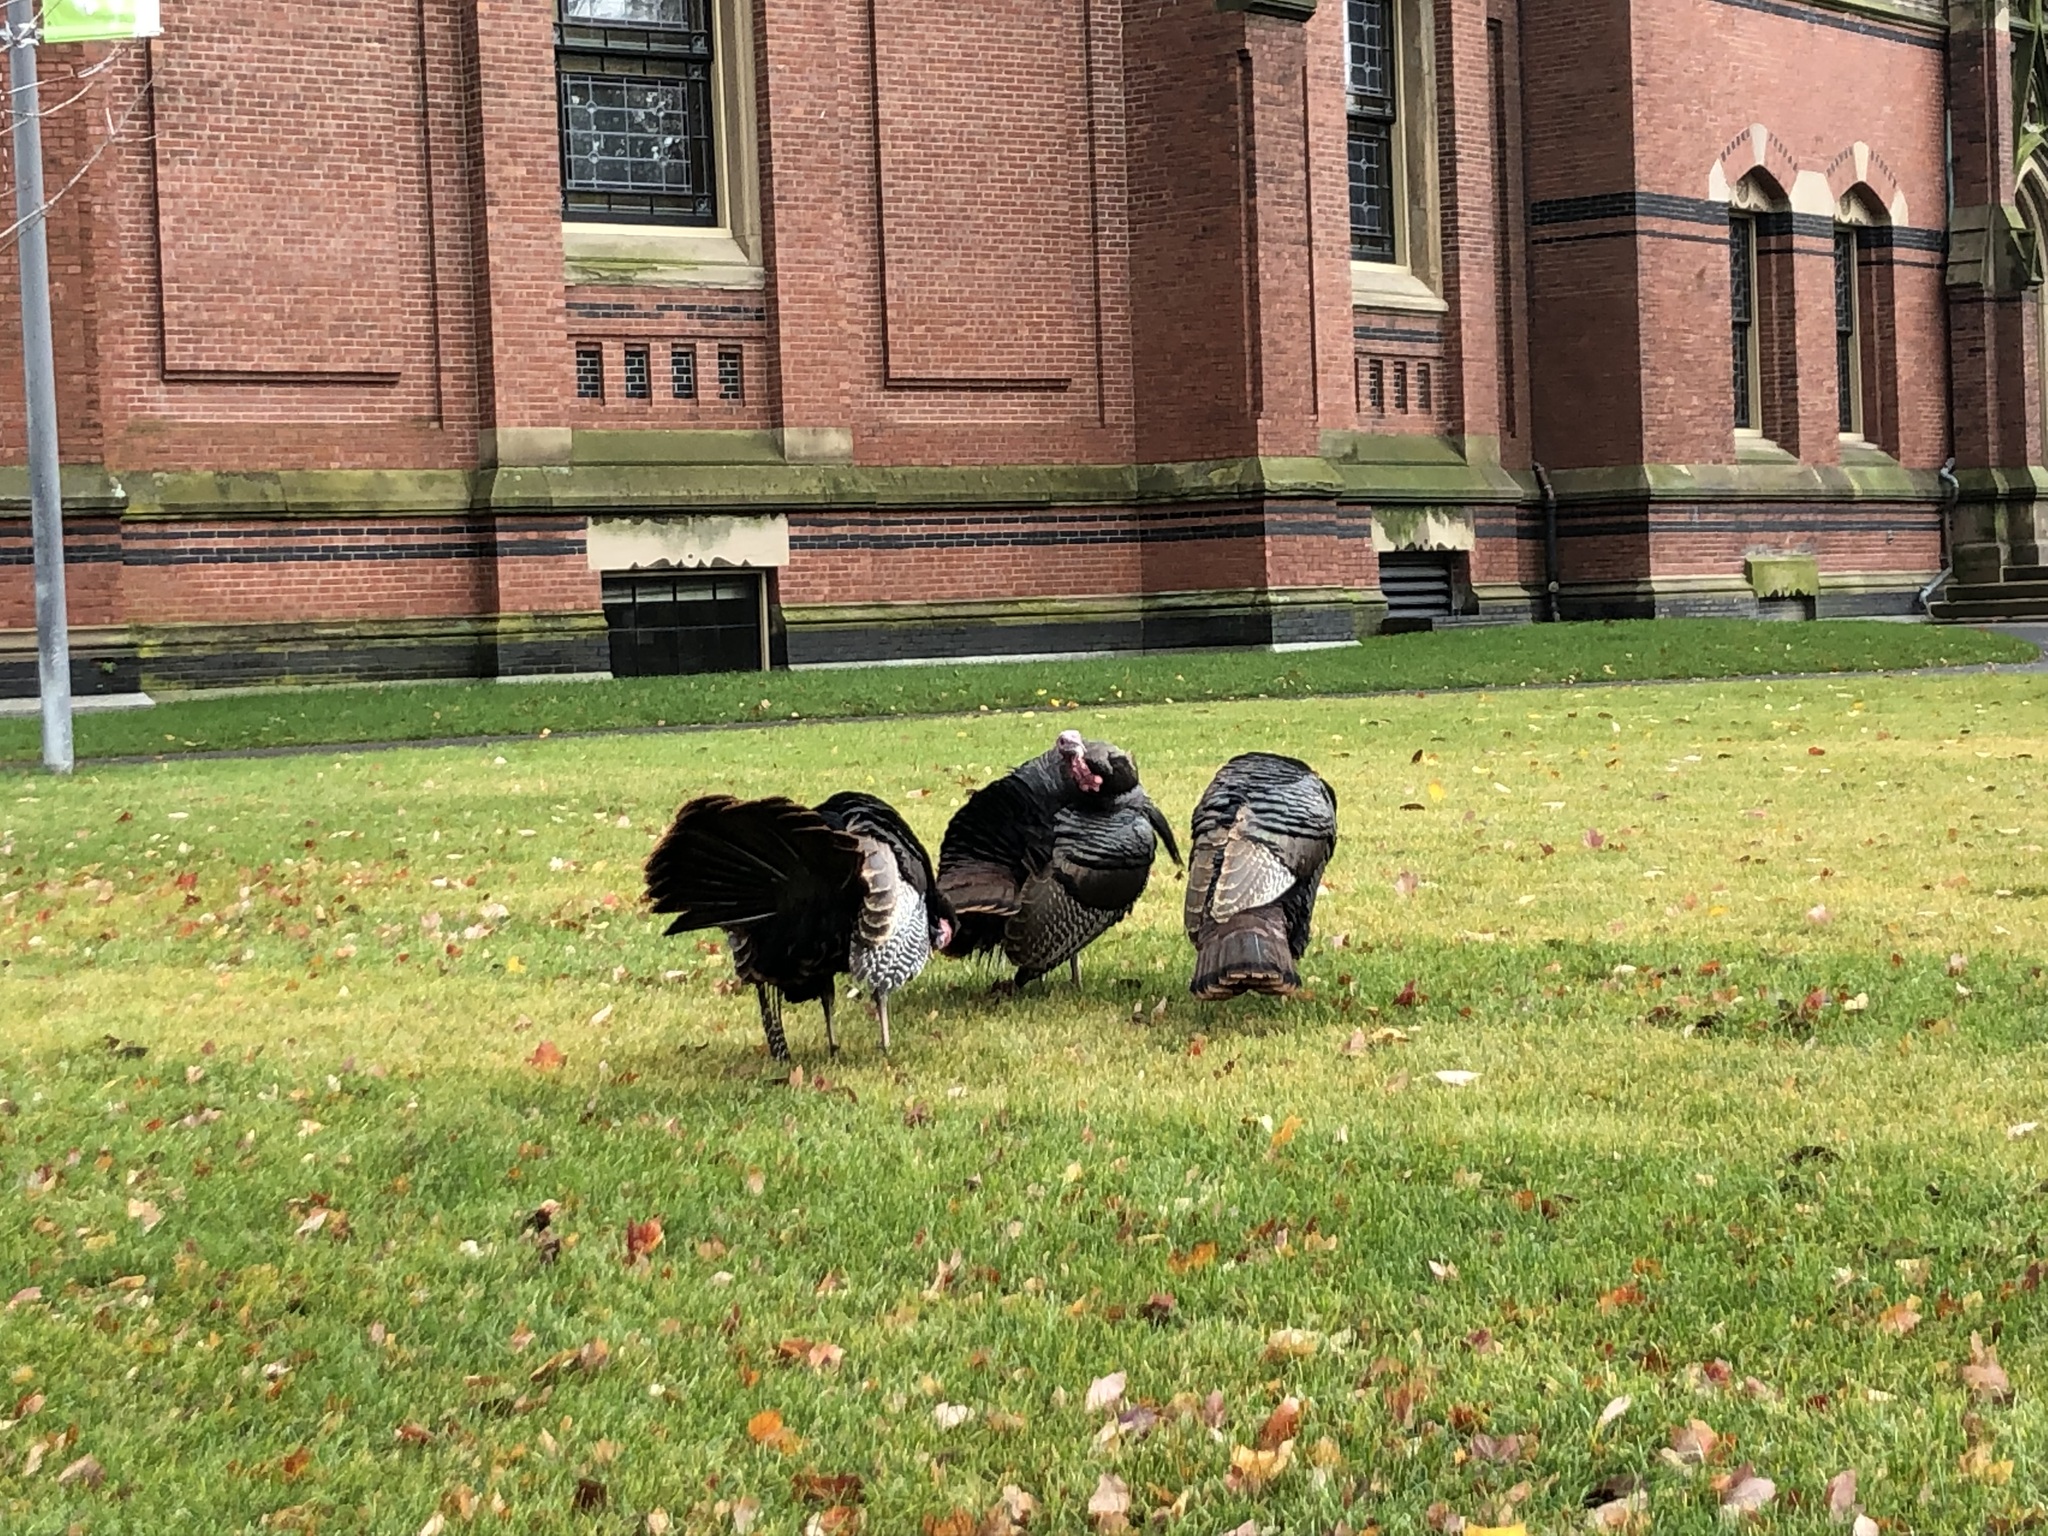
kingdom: Animalia
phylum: Chordata
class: Aves
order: Galliformes
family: Phasianidae
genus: Meleagris
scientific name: Meleagris gallopavo
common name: Wild turkey
